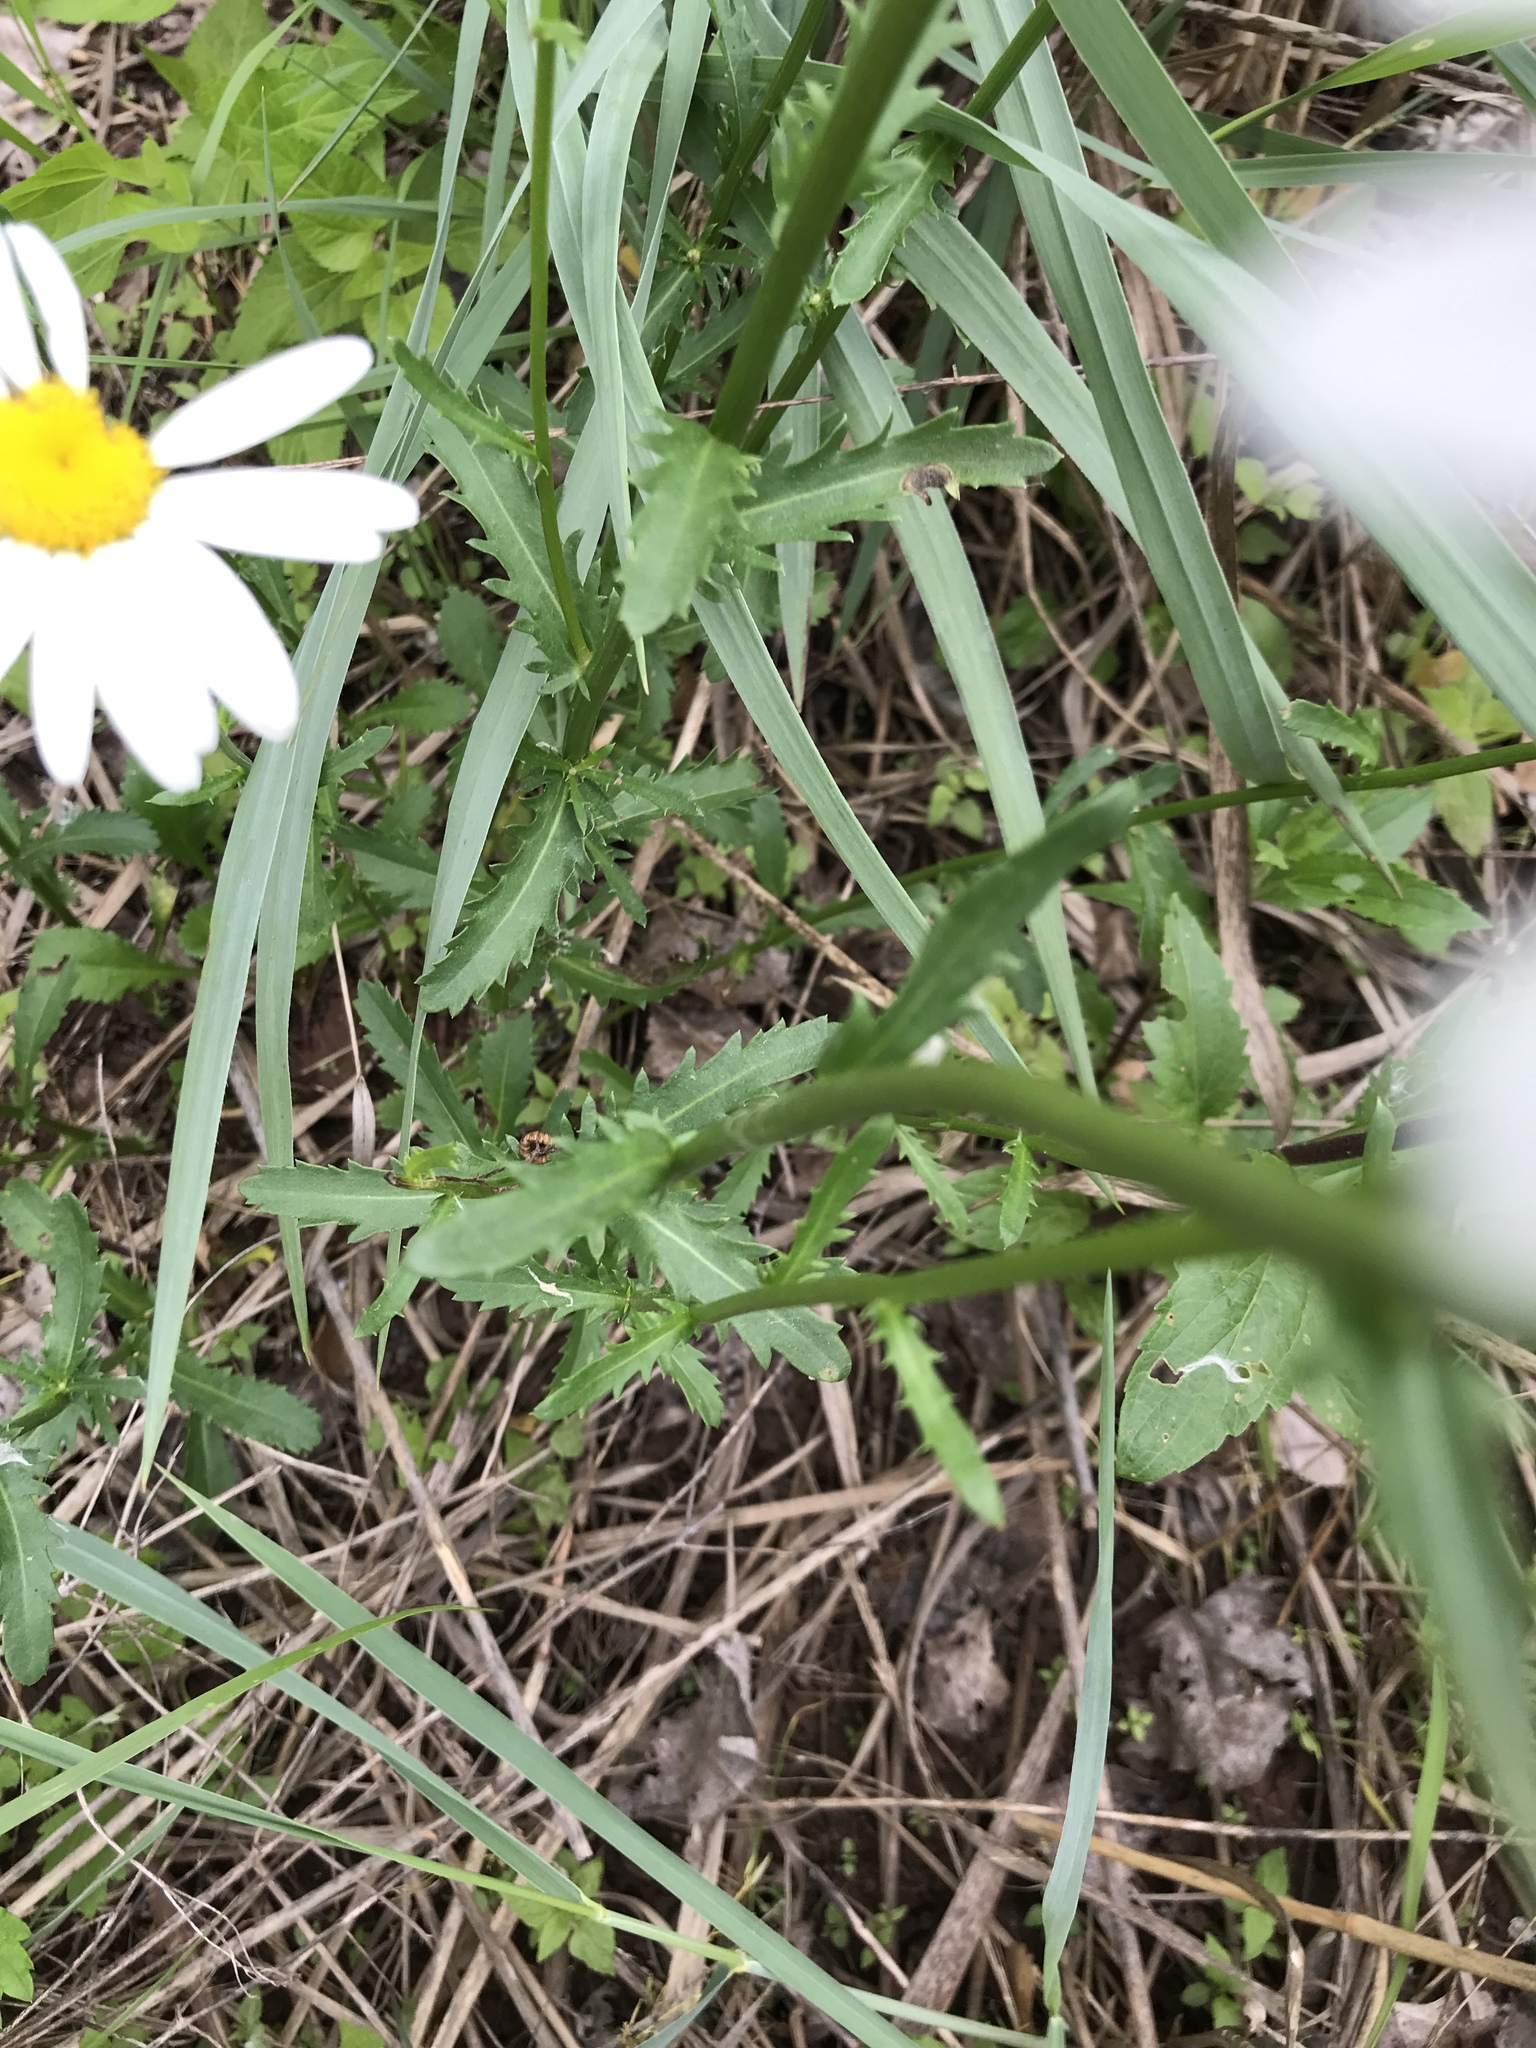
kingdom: Plantae
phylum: Tracheophyta
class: Magnoliopsida
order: Asterales
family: Asteraceae
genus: Leucanthemum
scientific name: Leucanthemum vulgare
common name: Oxeye daisy
